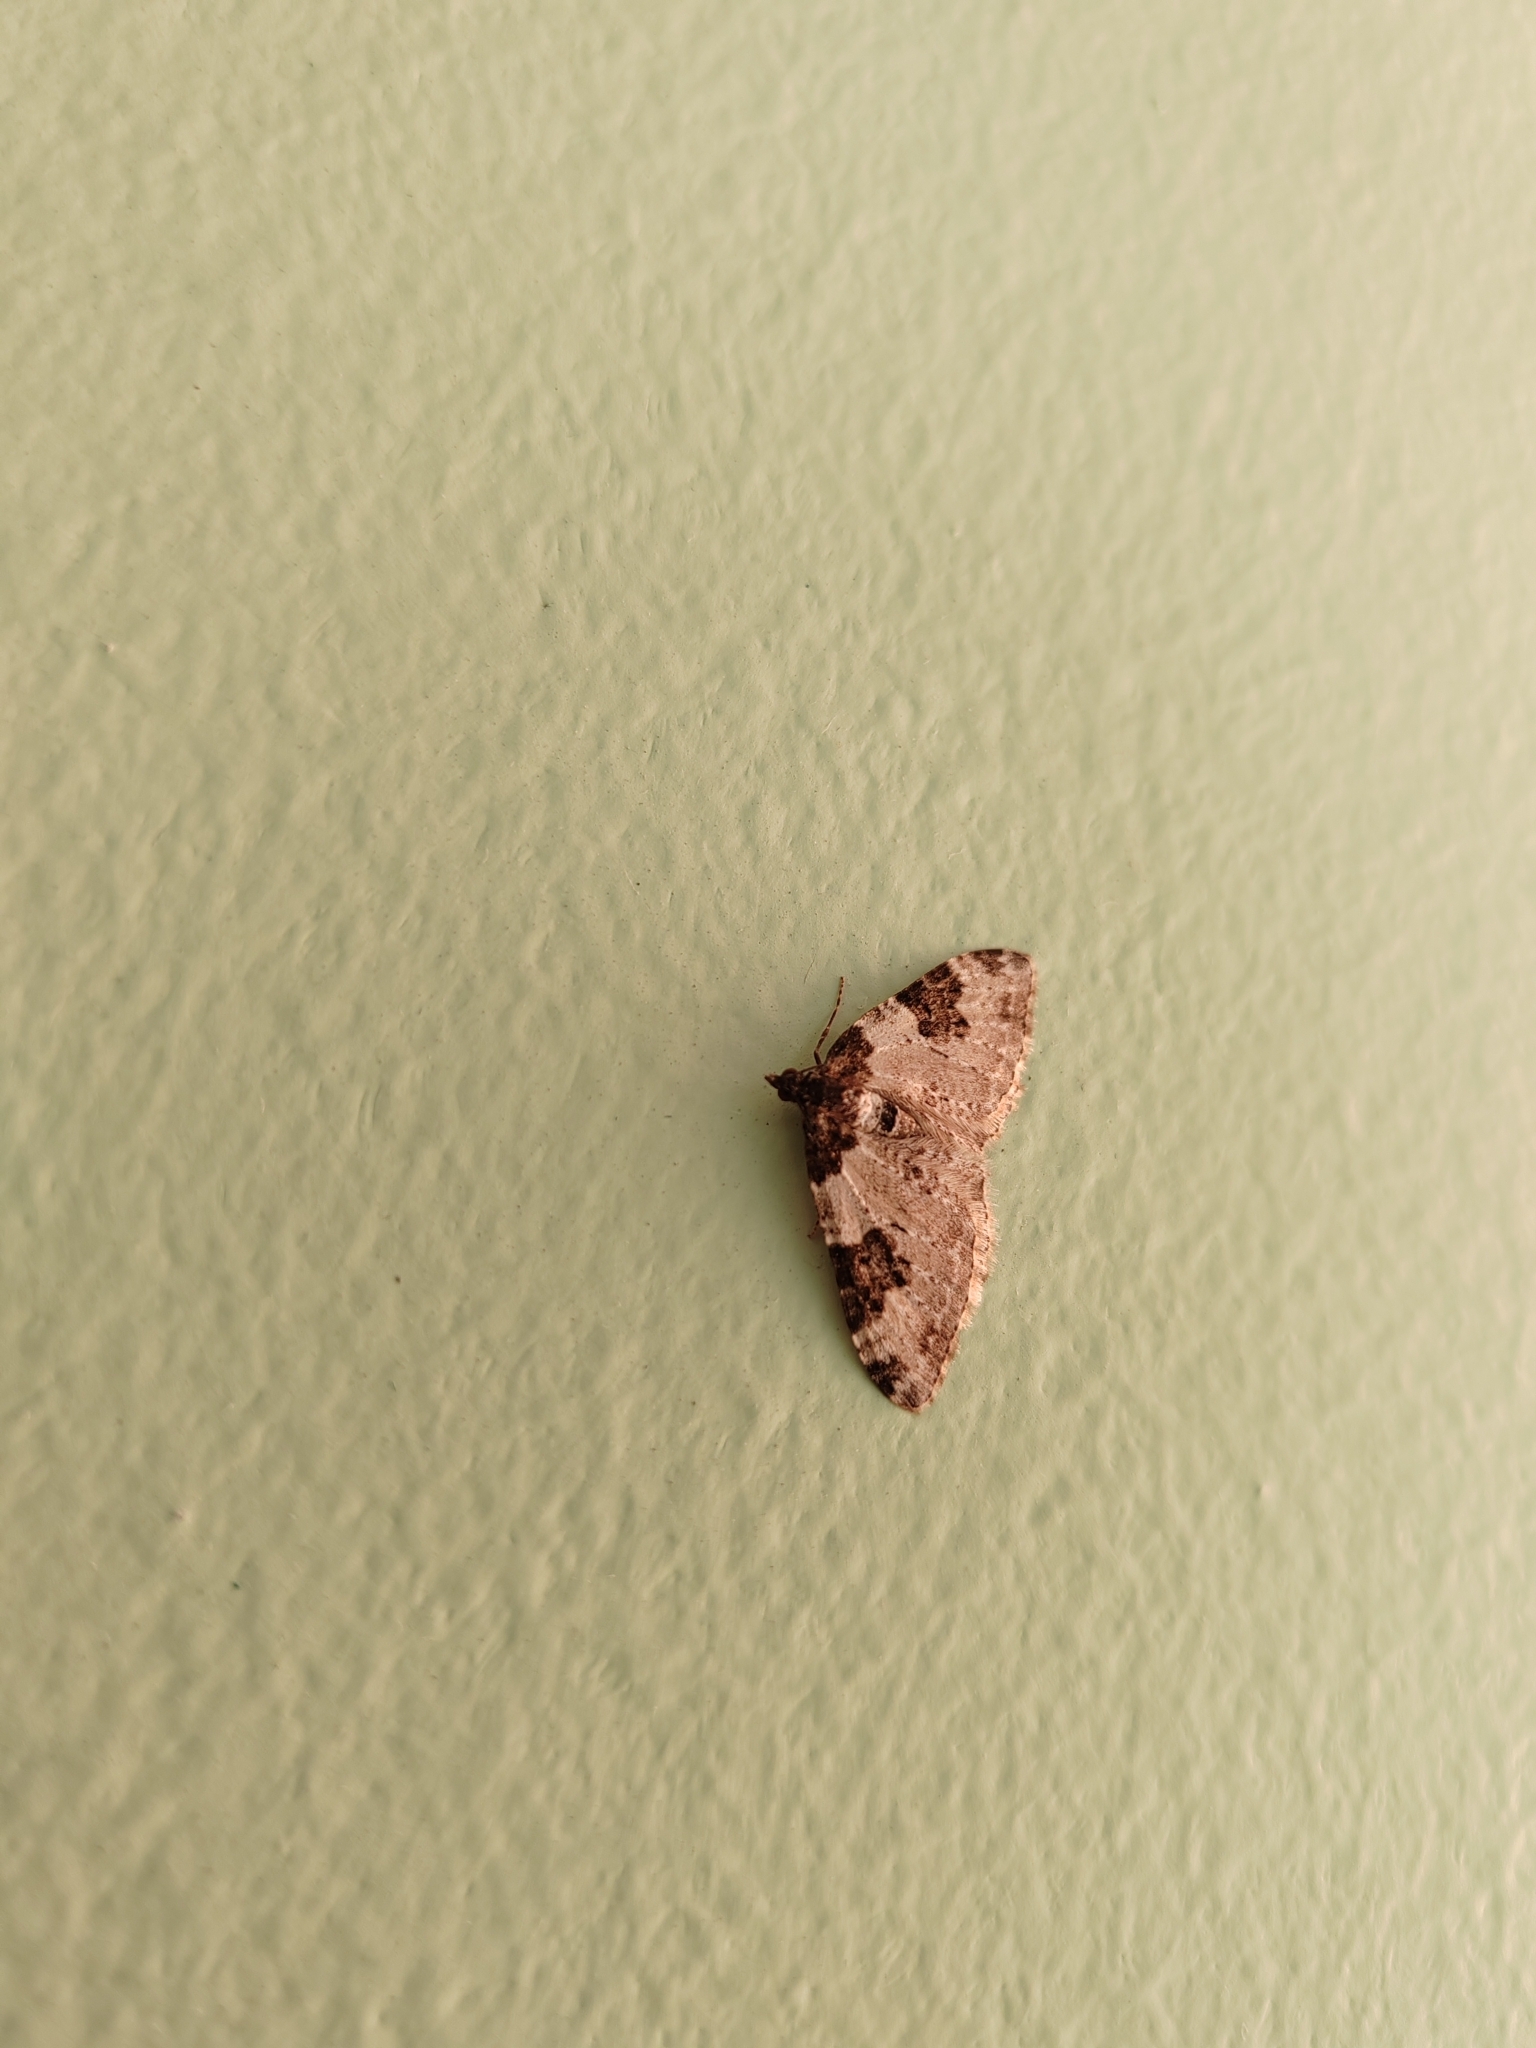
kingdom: Animalia
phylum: Arthropoda
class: Insecta
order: Lepidoptera
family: Geometridae
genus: Xanthorhoe
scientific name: Xanthorhoe fluctuata
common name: Garden carpet
